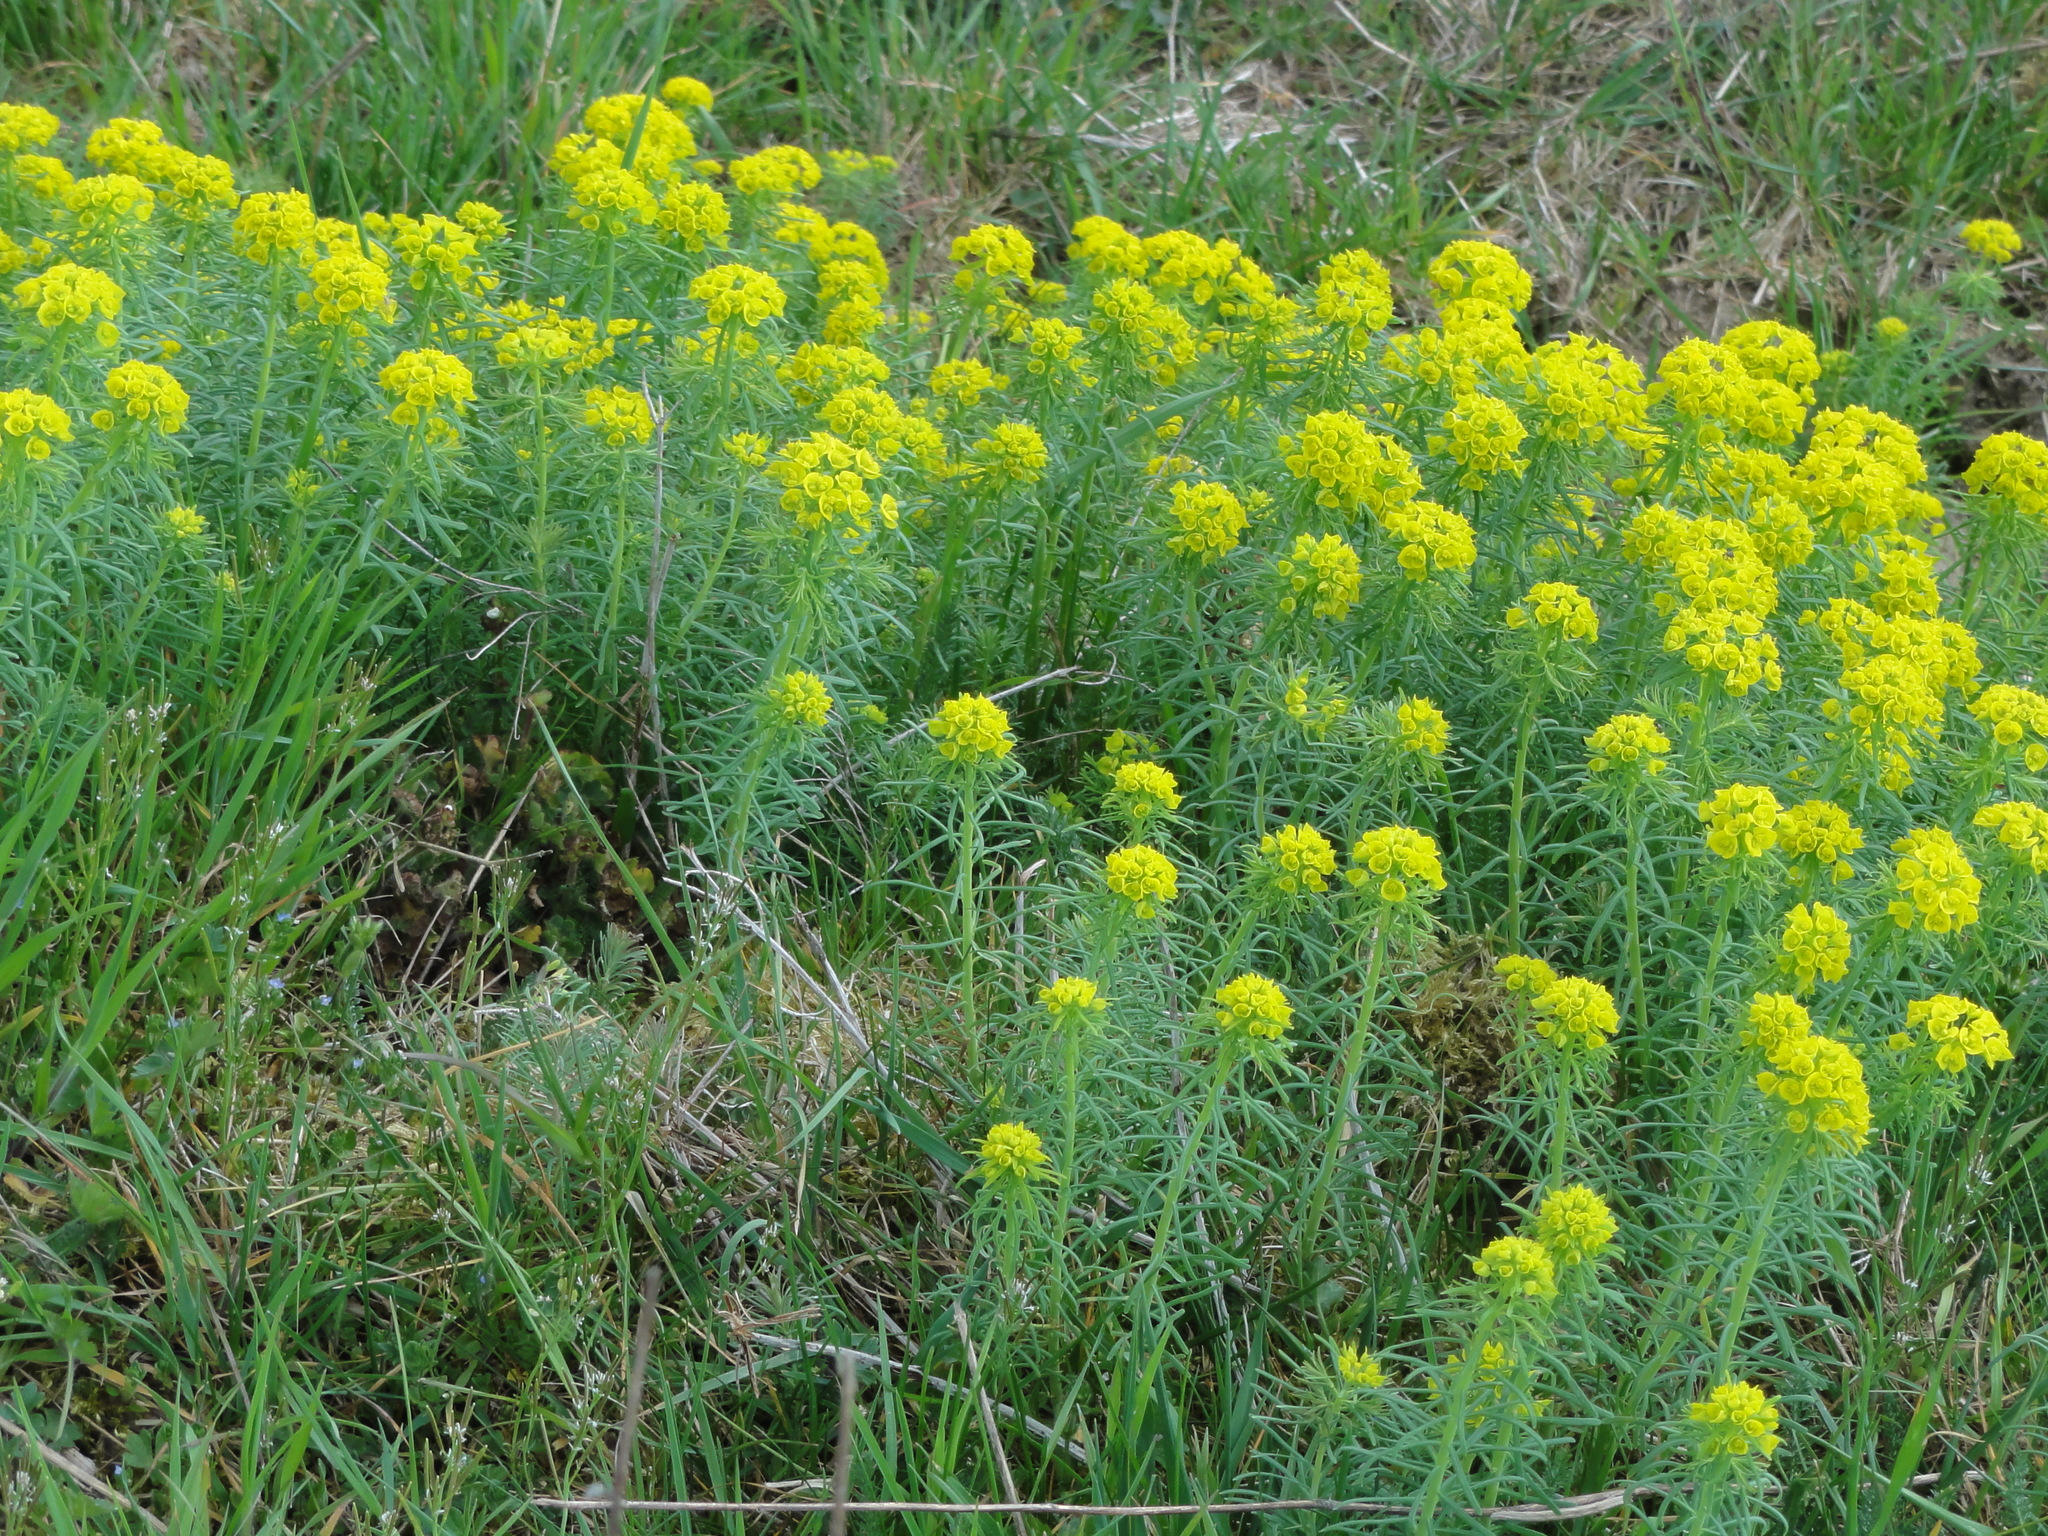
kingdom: Plantae
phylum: Tracheophyta
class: Magnoliopsida
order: Malpighiales
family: Euphorbiaceae
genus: Euphorbia
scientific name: Euphorbia cyparissias
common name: Cypress spurge
